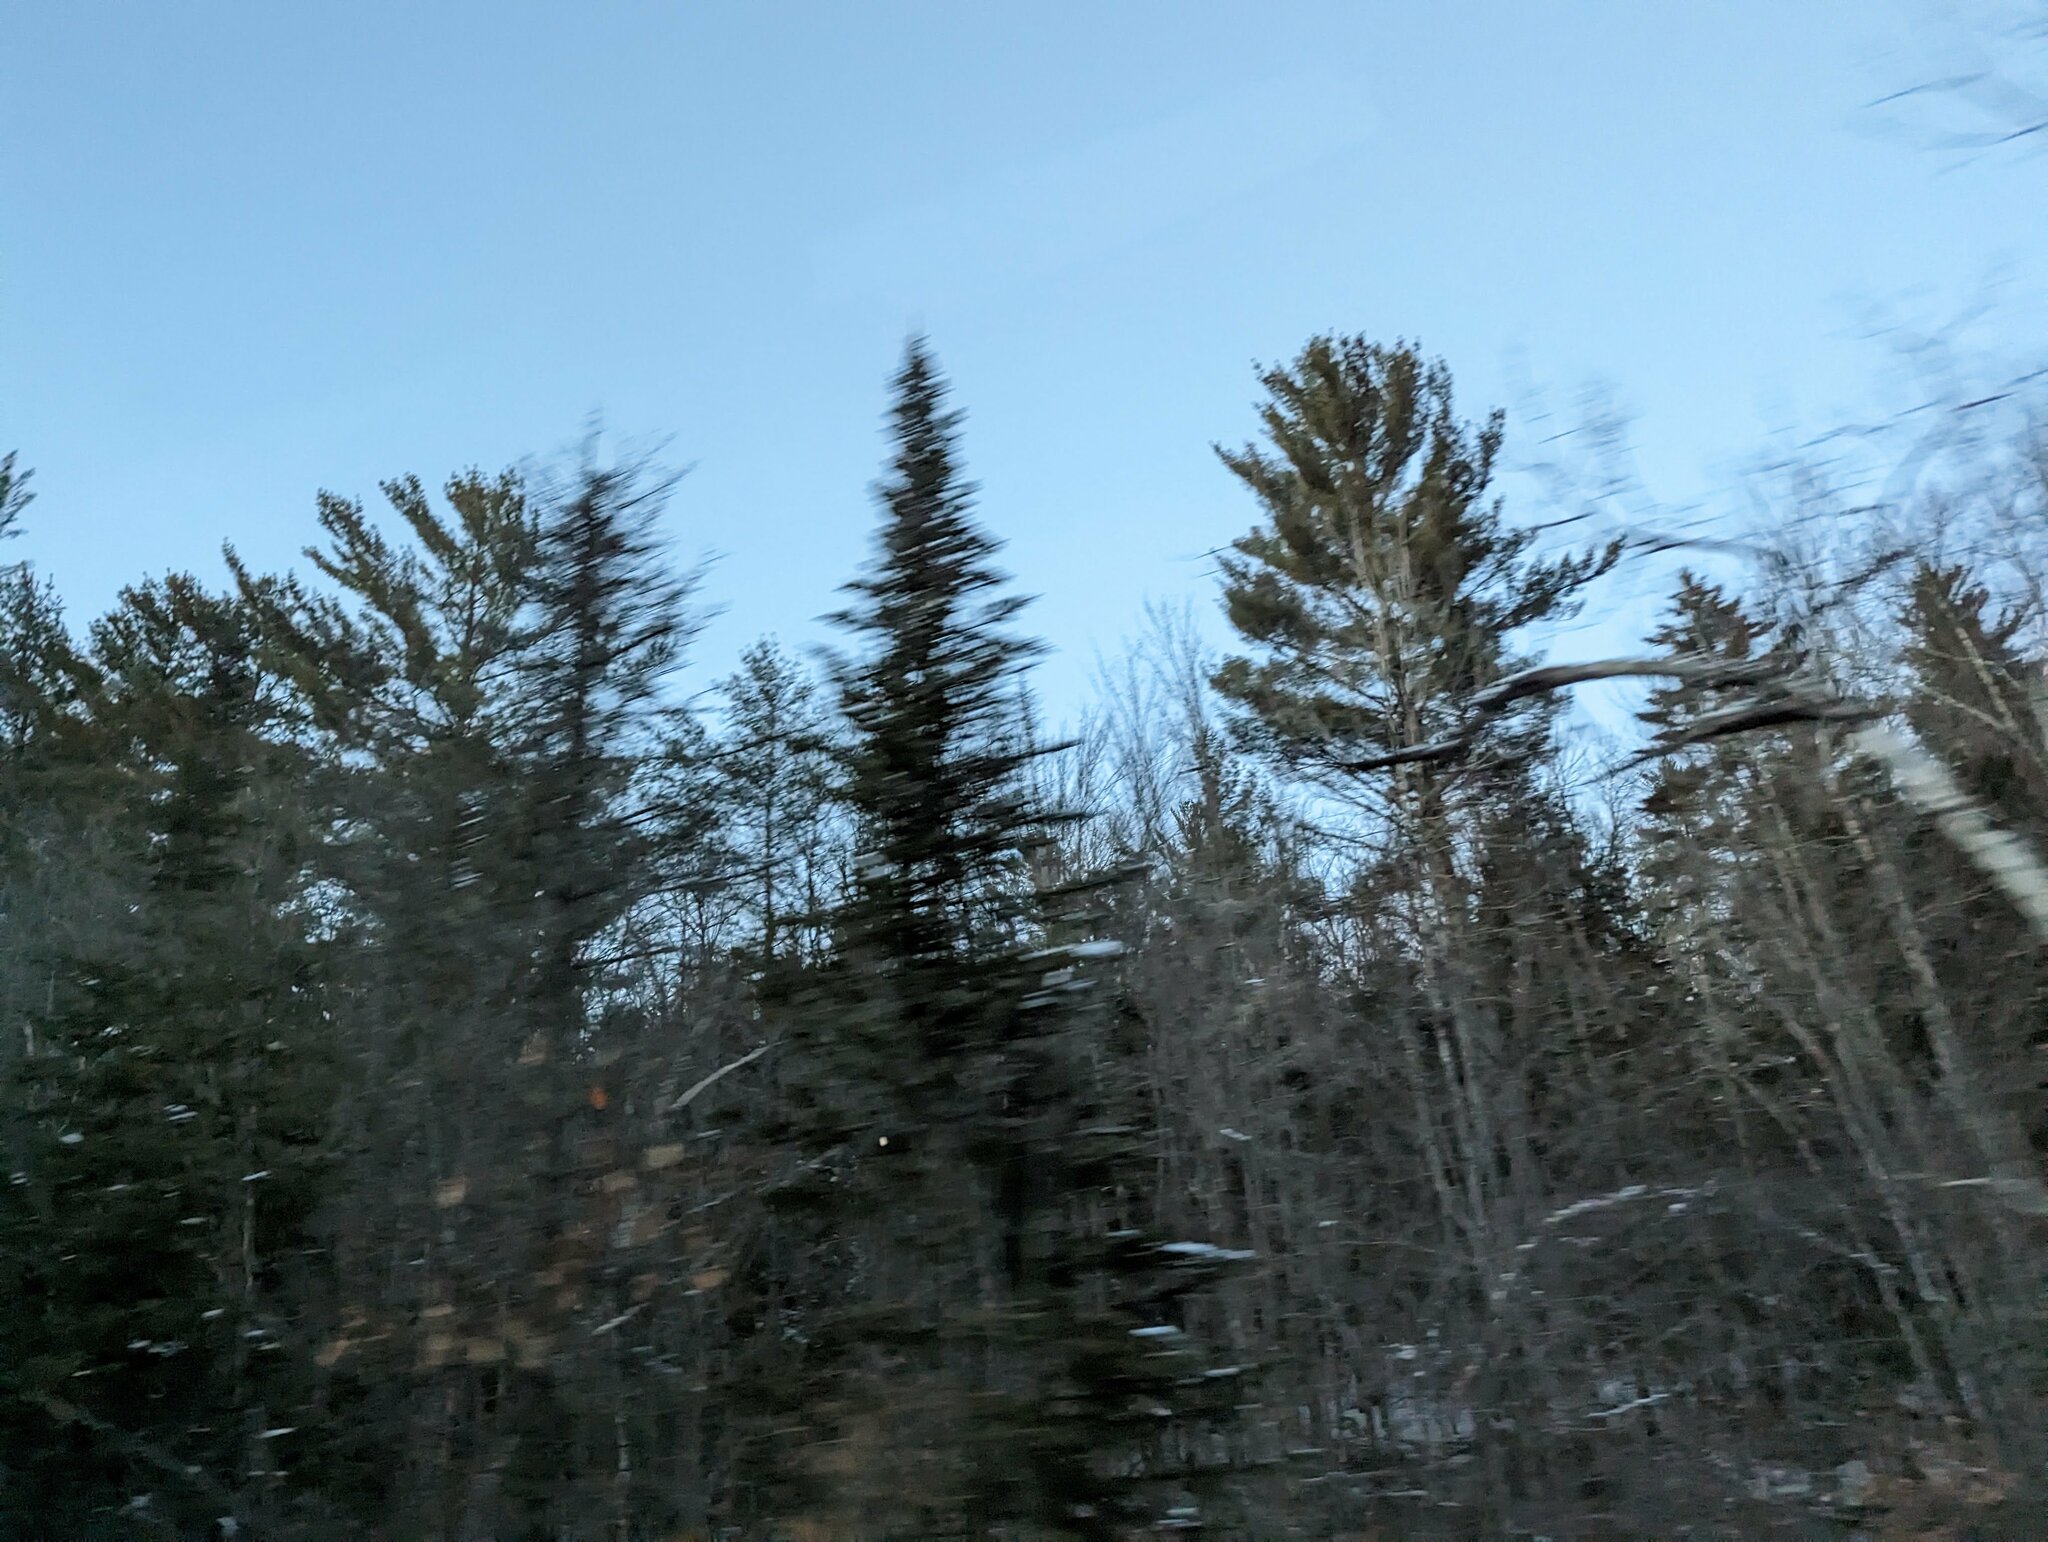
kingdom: Plantae
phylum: Tracheophyta
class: Pinopsida
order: Pinales
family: Pinaceae
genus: Pinus
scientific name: Pinus strobus
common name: Weymouth pine
